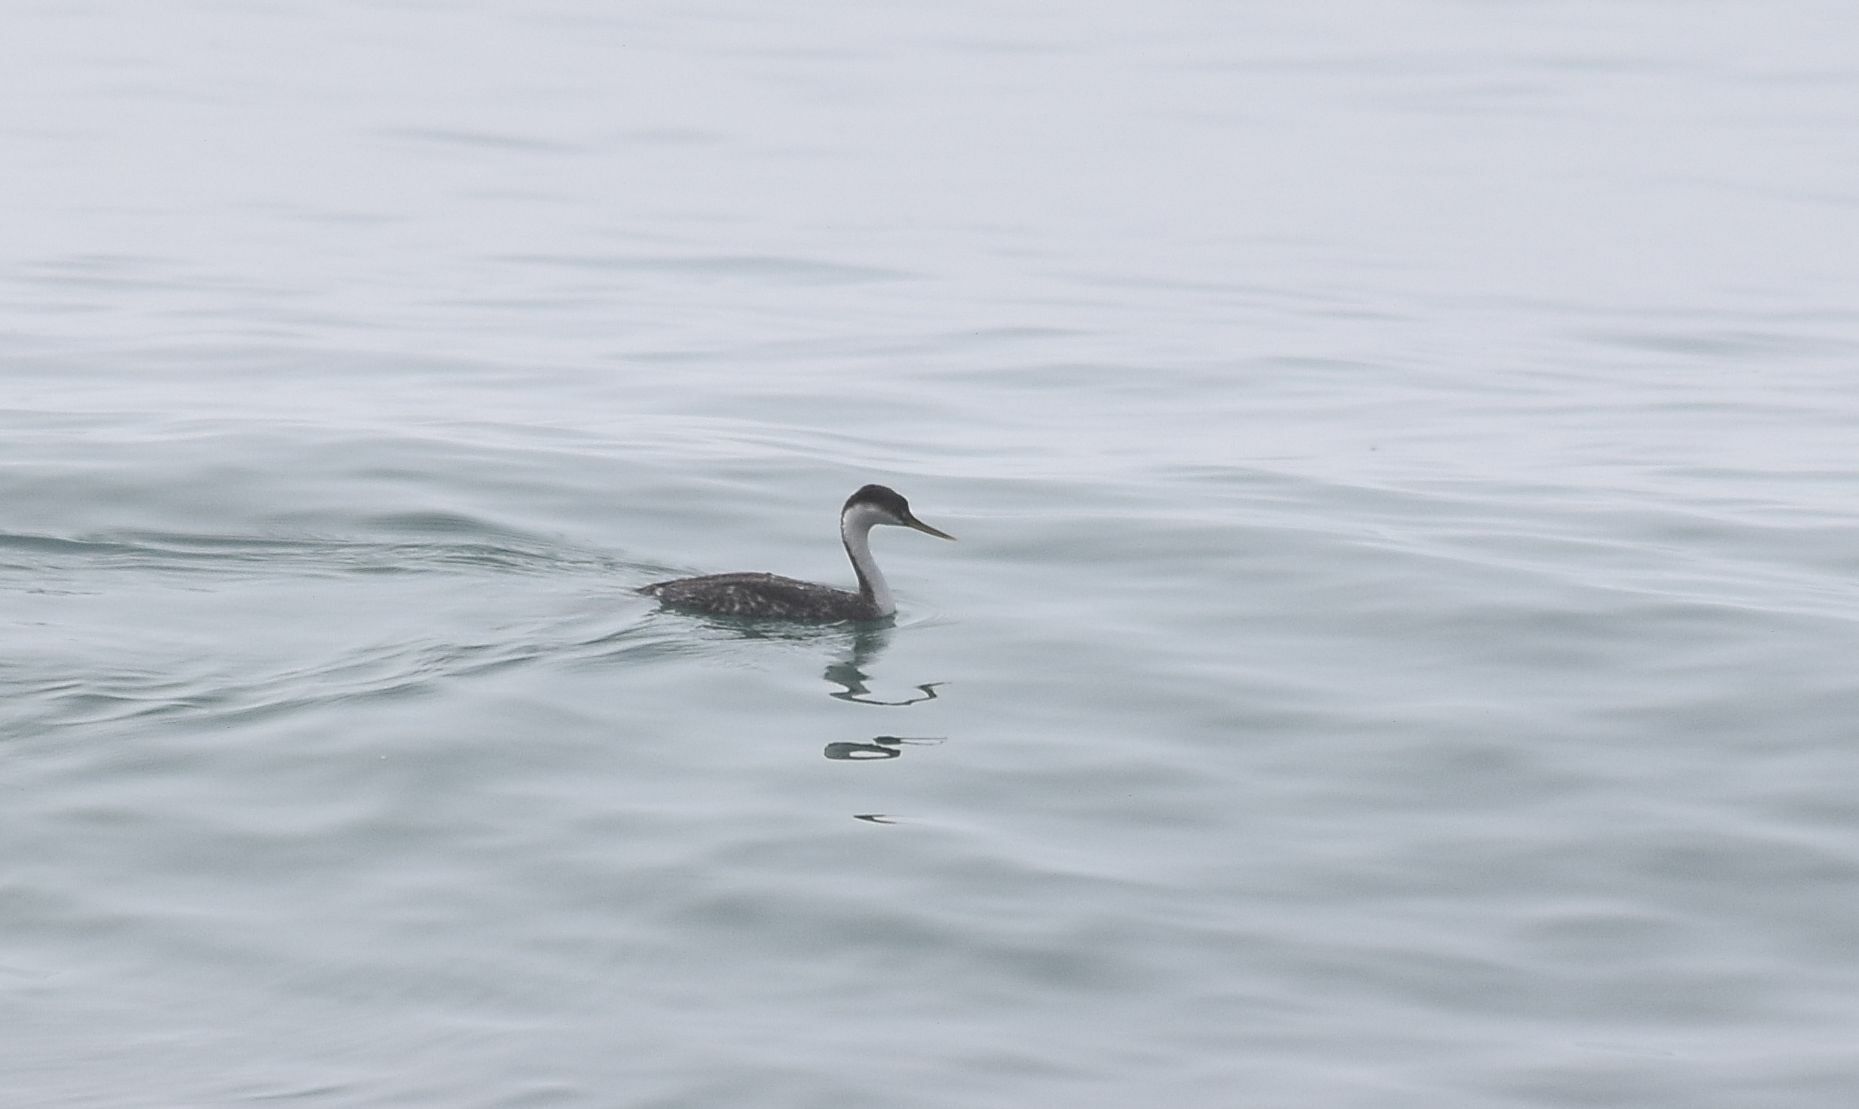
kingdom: Animalia
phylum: Chordata
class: Aves
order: Podicipediformes
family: Podicipedidae
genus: Aechmophorus
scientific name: Aechmophorus occidentalis
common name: Western grebe
